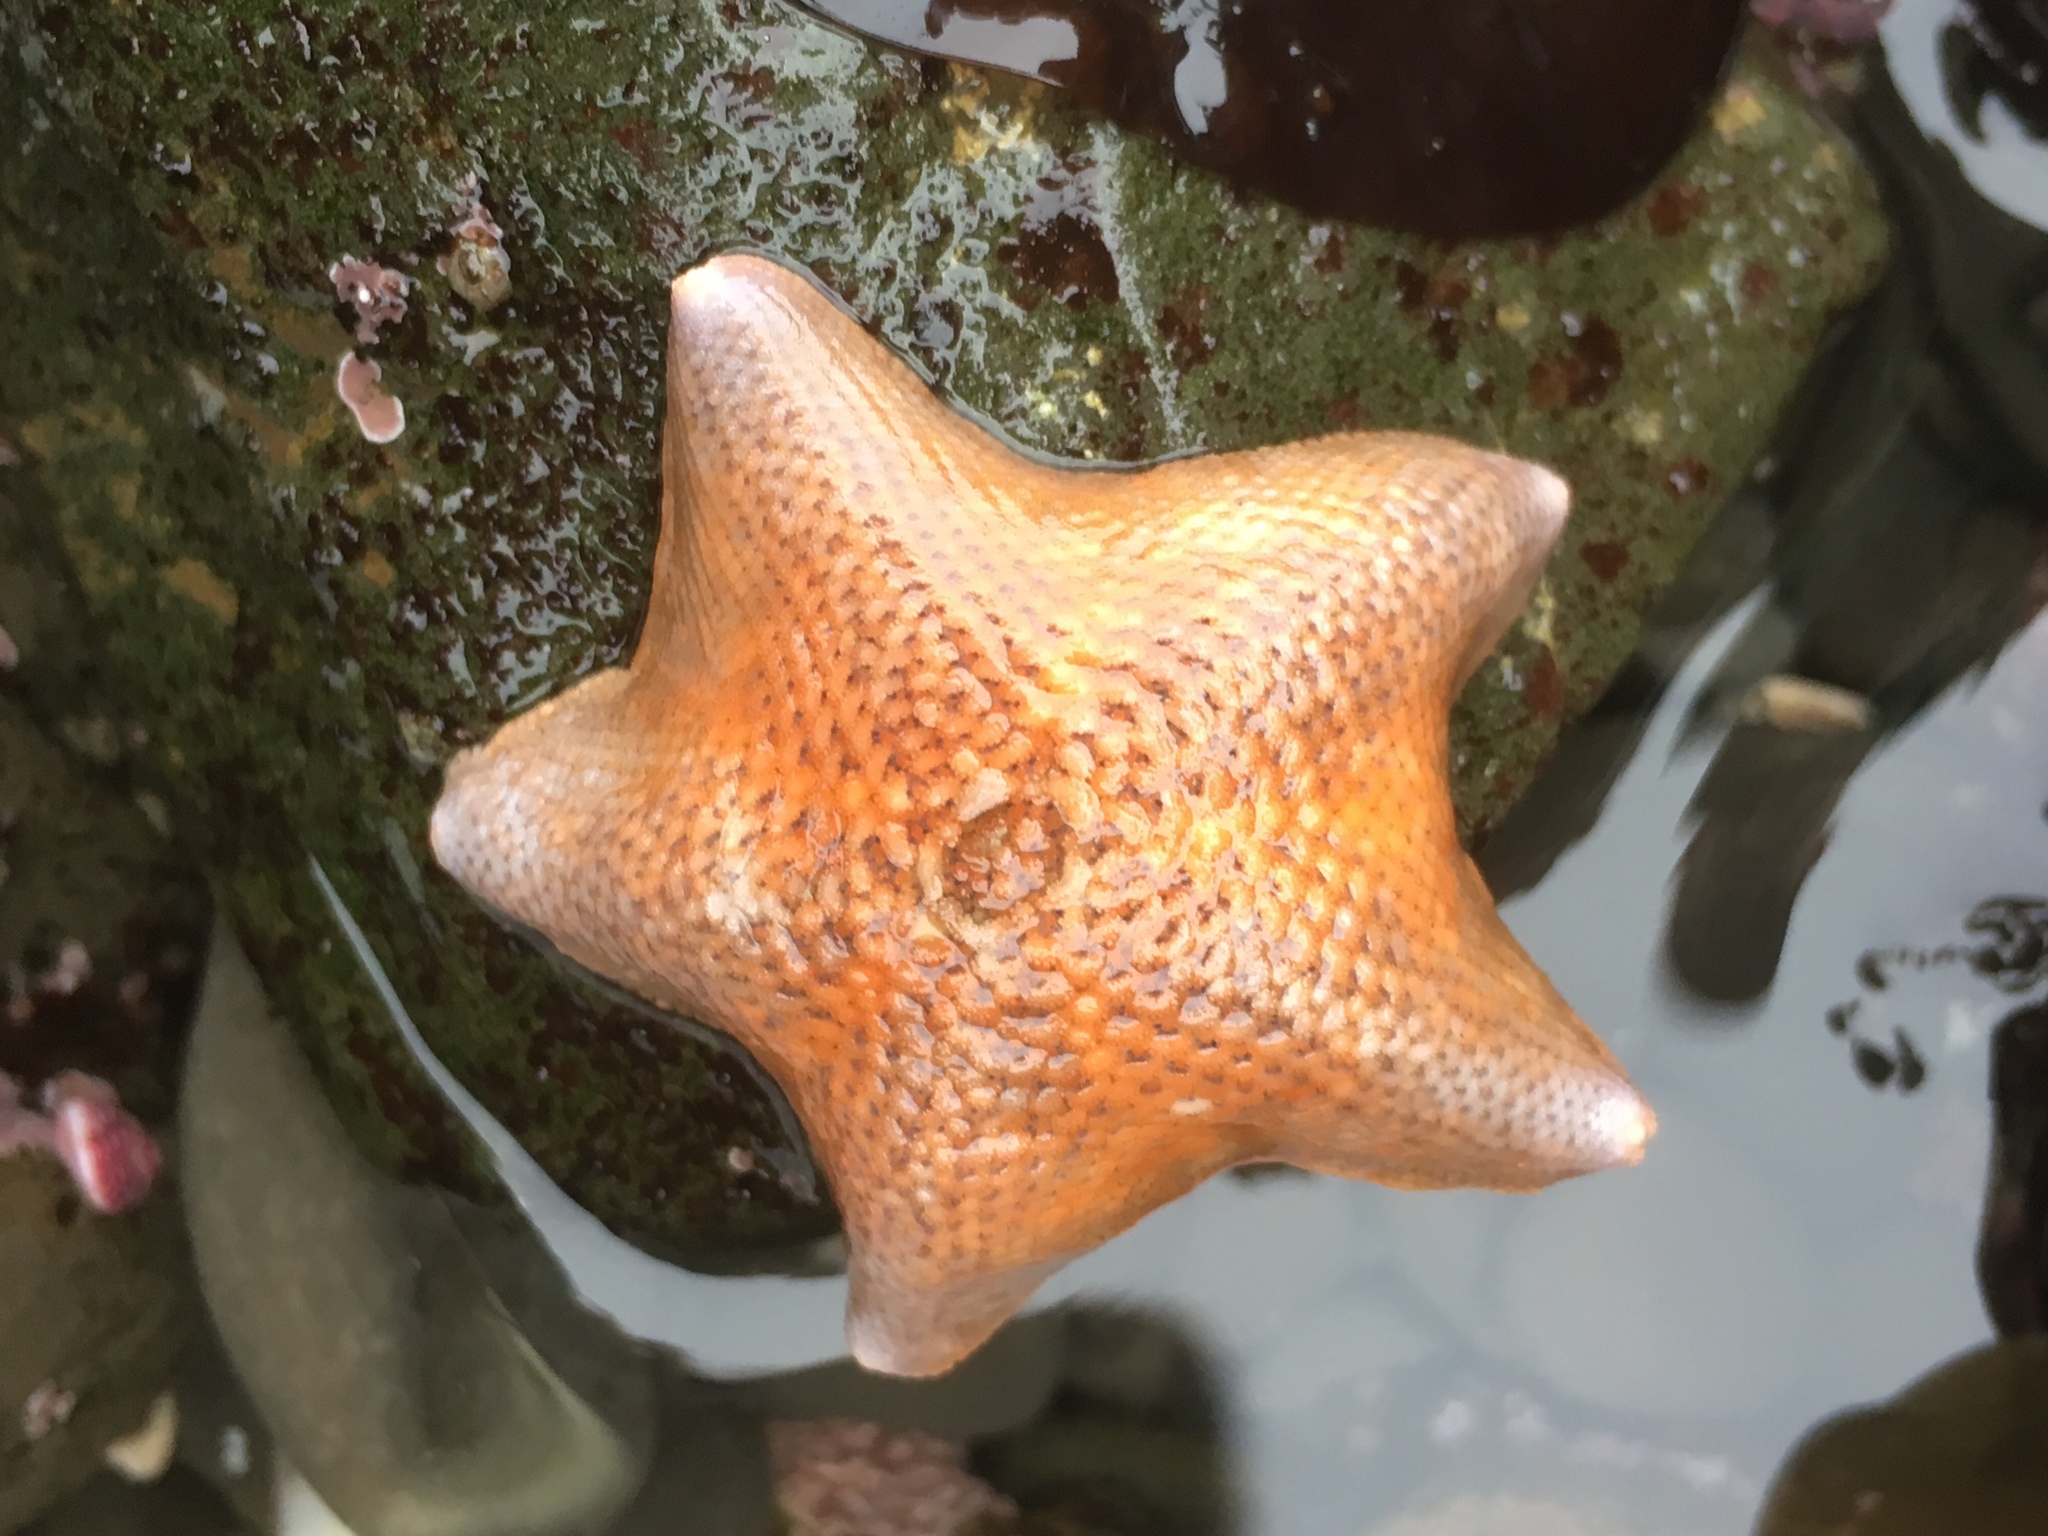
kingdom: Animalia
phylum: Echinodermata
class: Asteroidea
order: Valvatida
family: Asterinidae
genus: Patiria
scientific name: Patiria miniata
